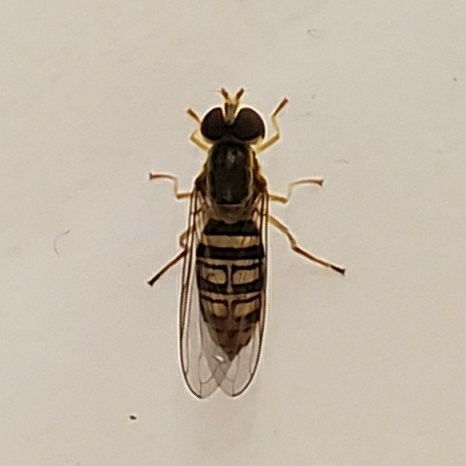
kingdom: Animalia
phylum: Arthropoda
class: Insecta
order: Diptera
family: Syrphidae
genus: Toxomerus
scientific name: Toxomerus politus
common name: Maize calligrapher
